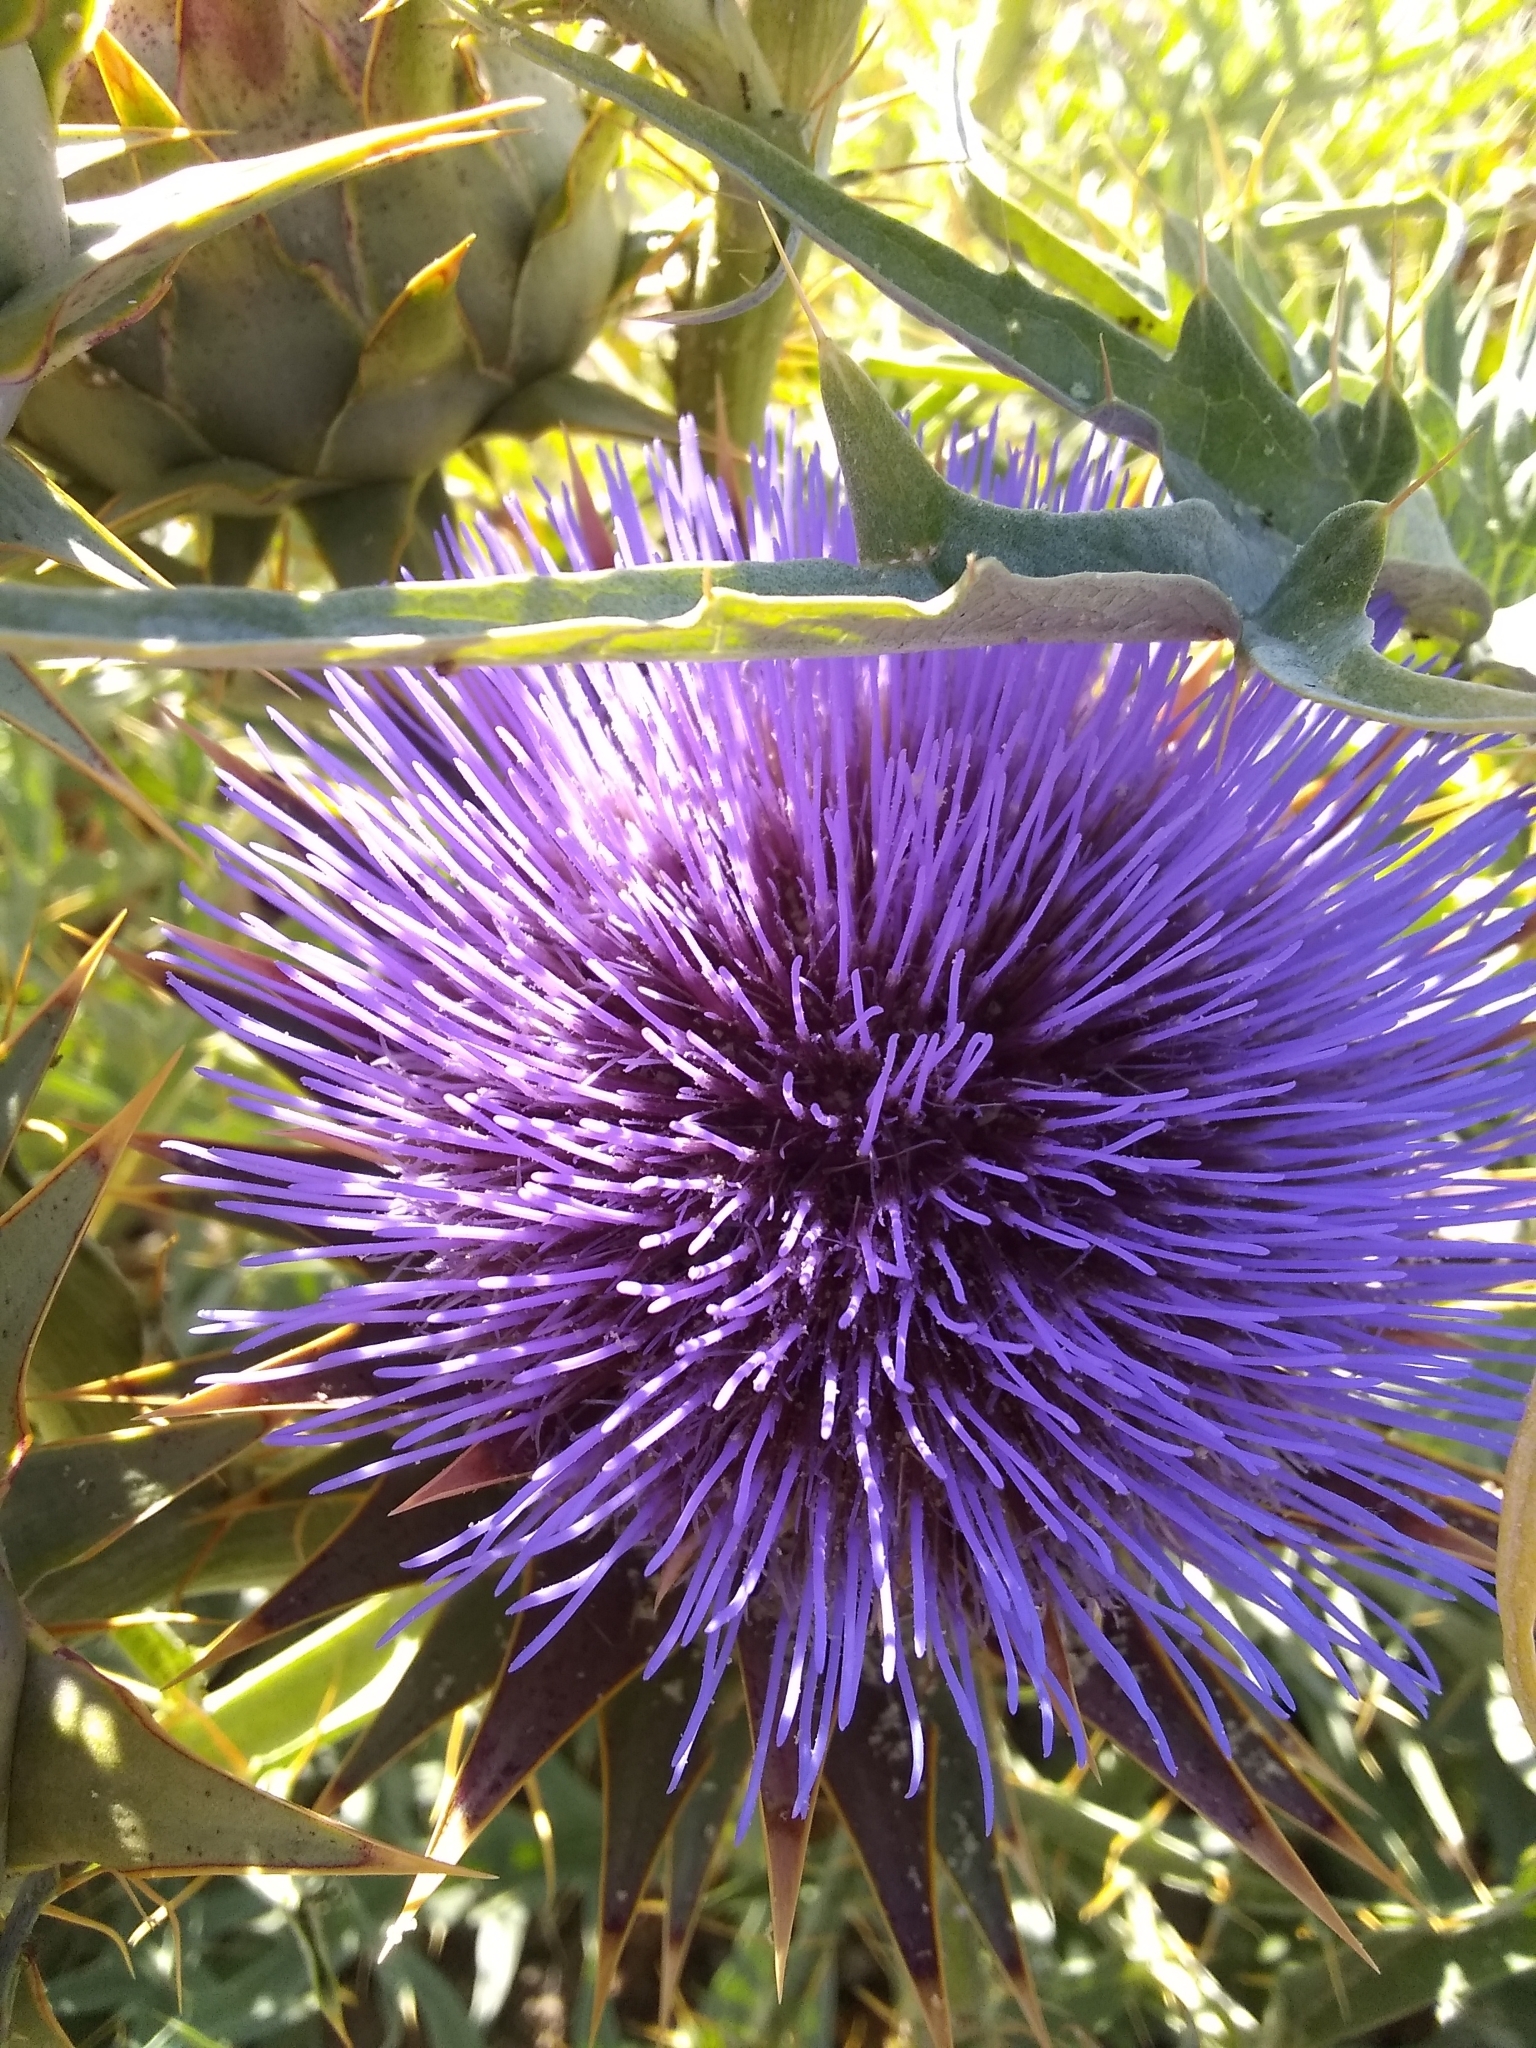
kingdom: Plantae
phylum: Tracheophyta
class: Magnoliopsida
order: Asterales
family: Asteraceae
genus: Cynara
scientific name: Cynara cardunculus
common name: Globe artichoke
